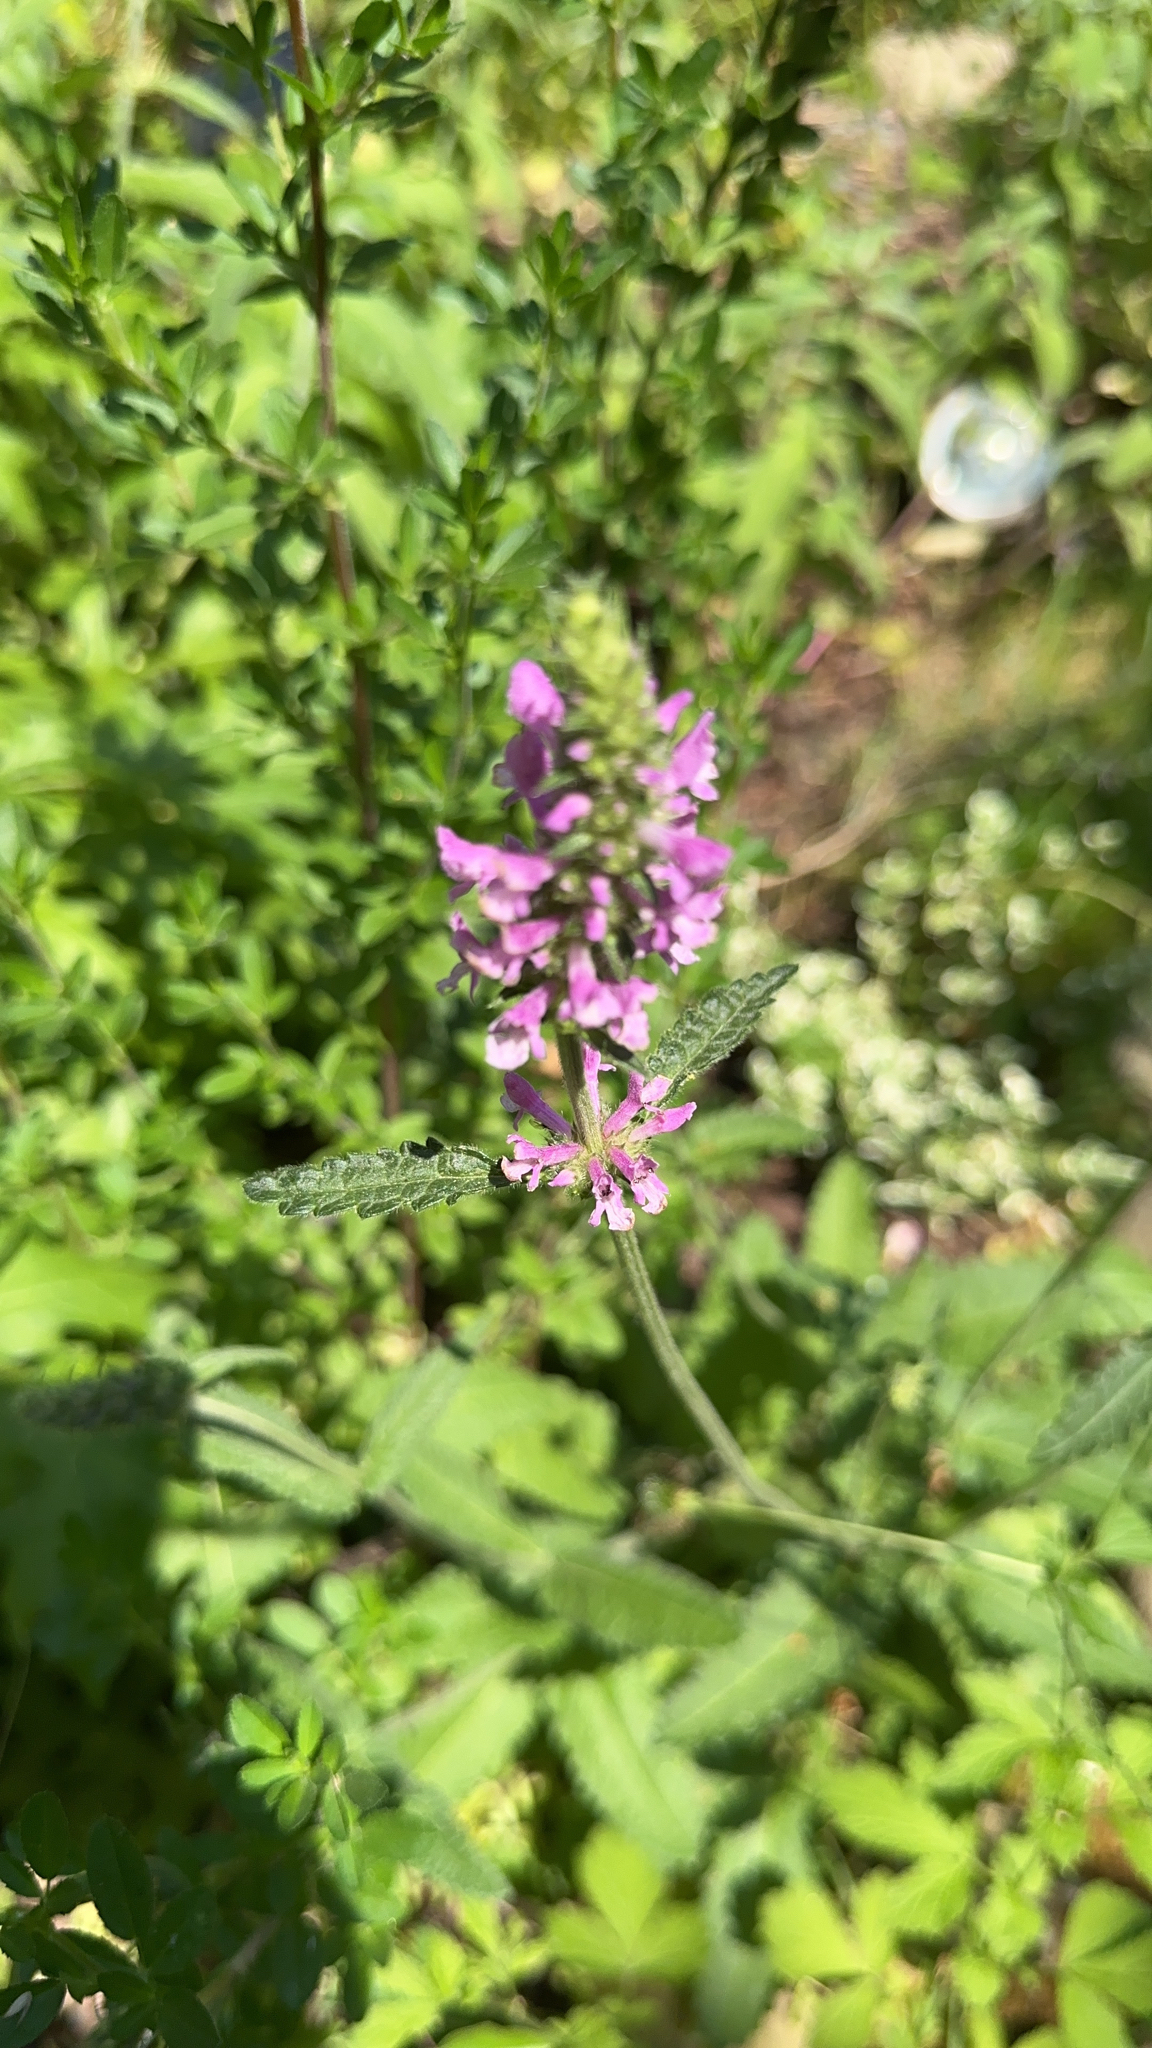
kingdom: Plantae
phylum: Tracheophyta
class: Magnoliopsida
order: Lamiales
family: Lamiaceae
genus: Betonica
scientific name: Betonica officinalis
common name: Bishop's-wort
